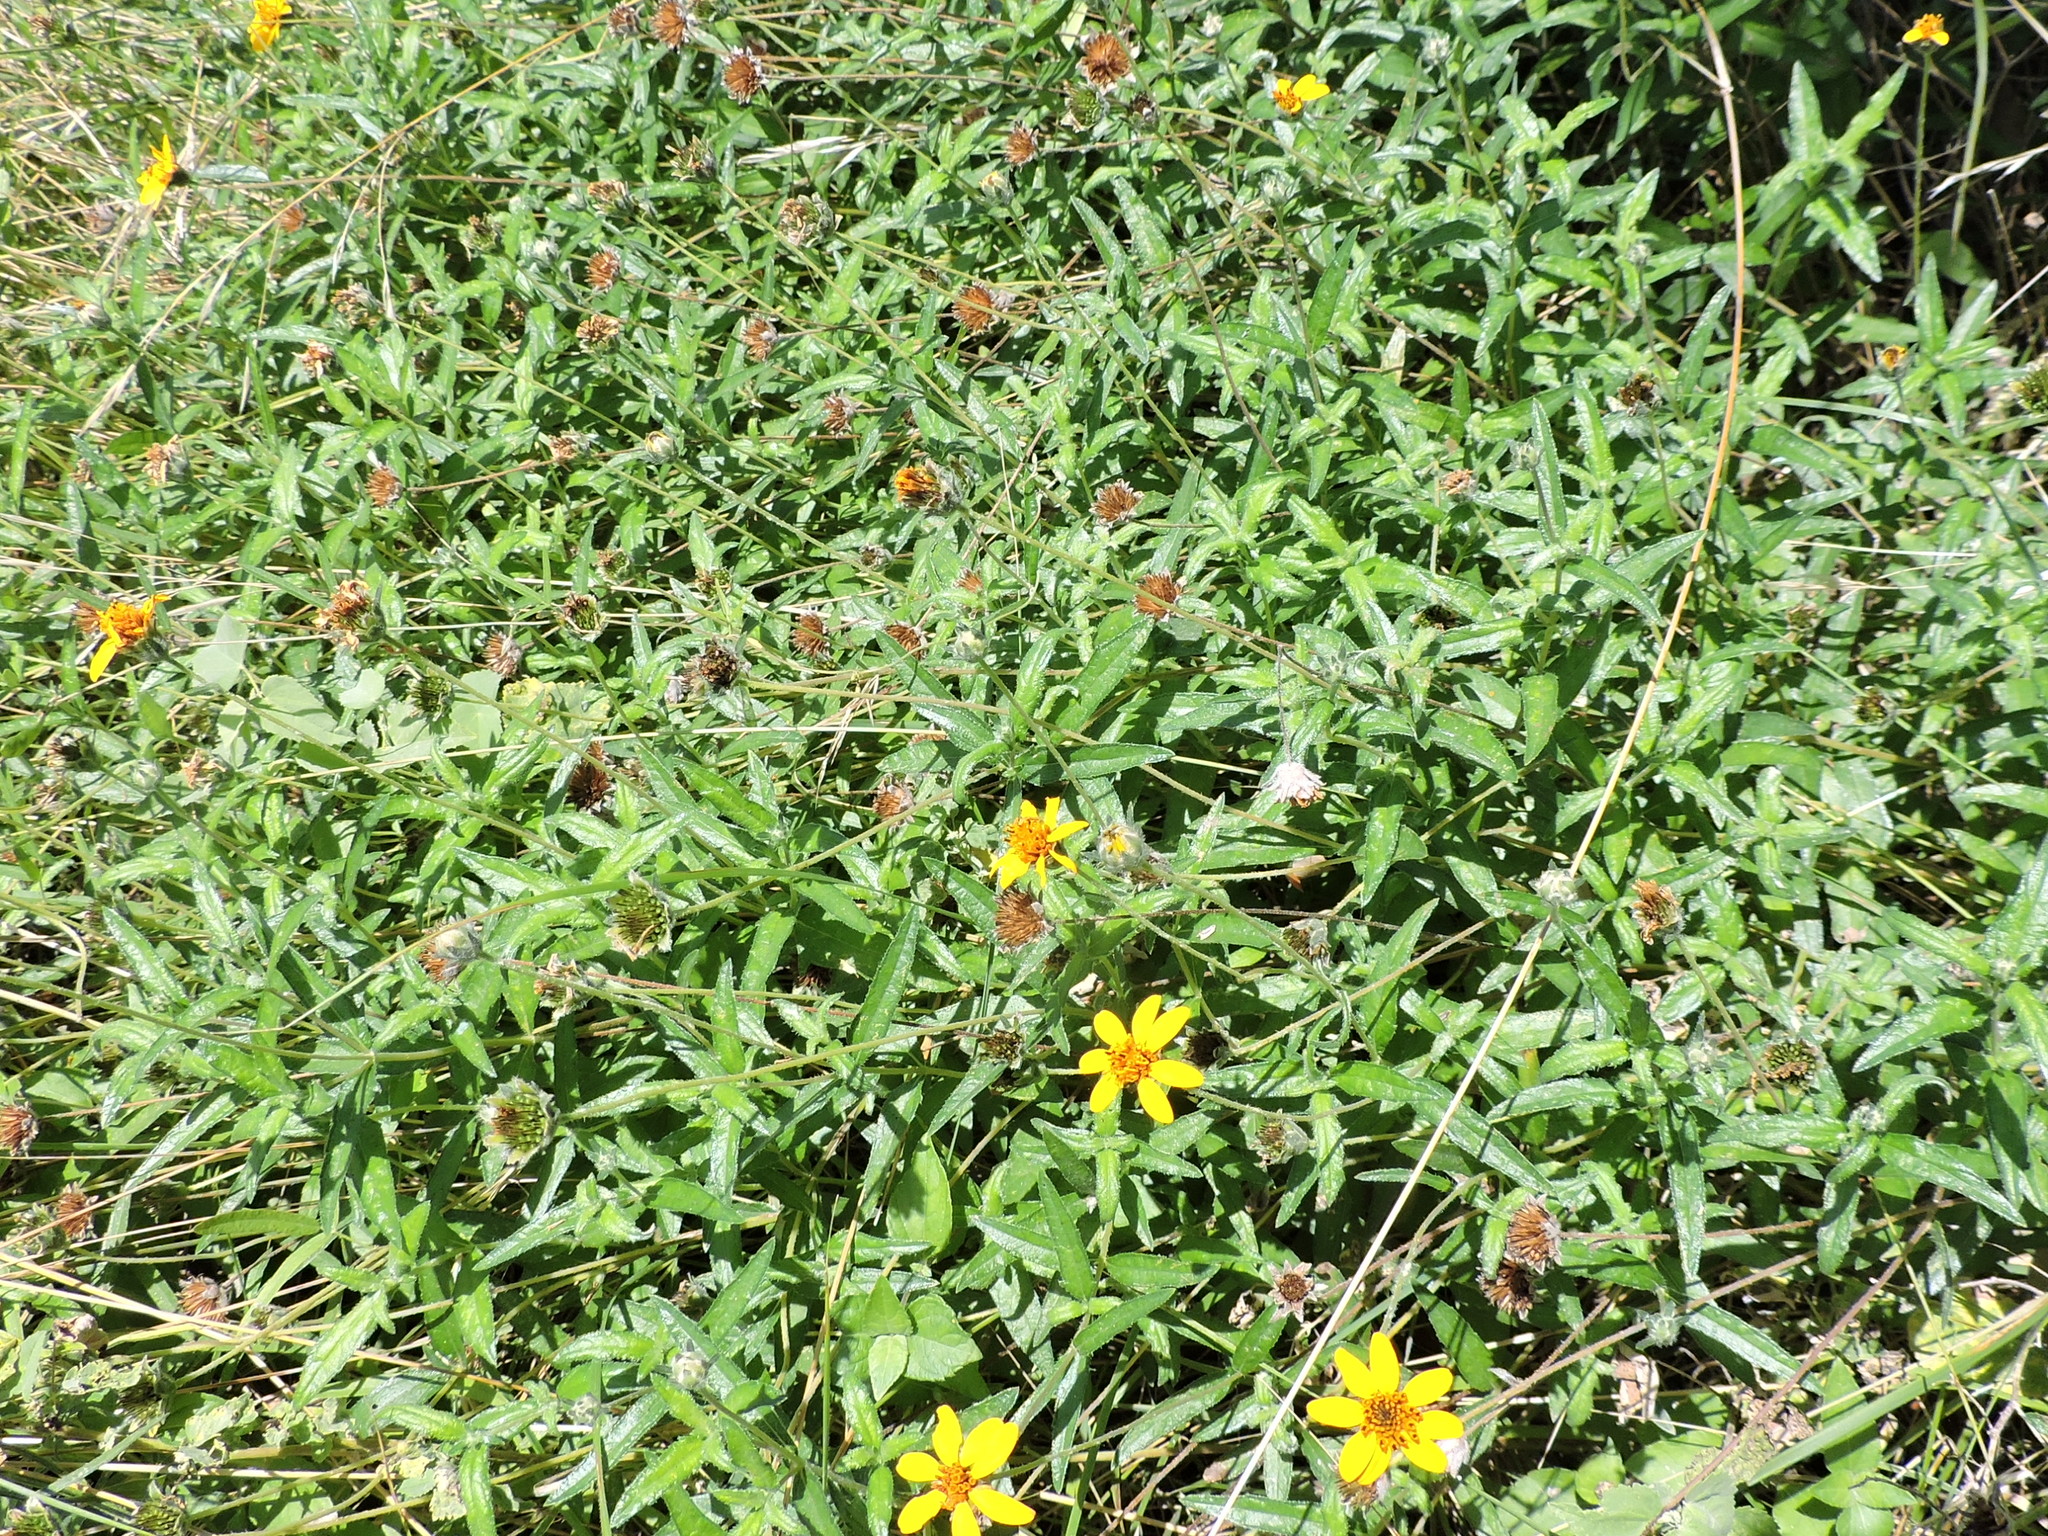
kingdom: Plantae
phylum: Tracheophyta
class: Magnoliopsida
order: Asterales
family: Asteraceae
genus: Wedelia
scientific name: Wedelia acapulcensis
